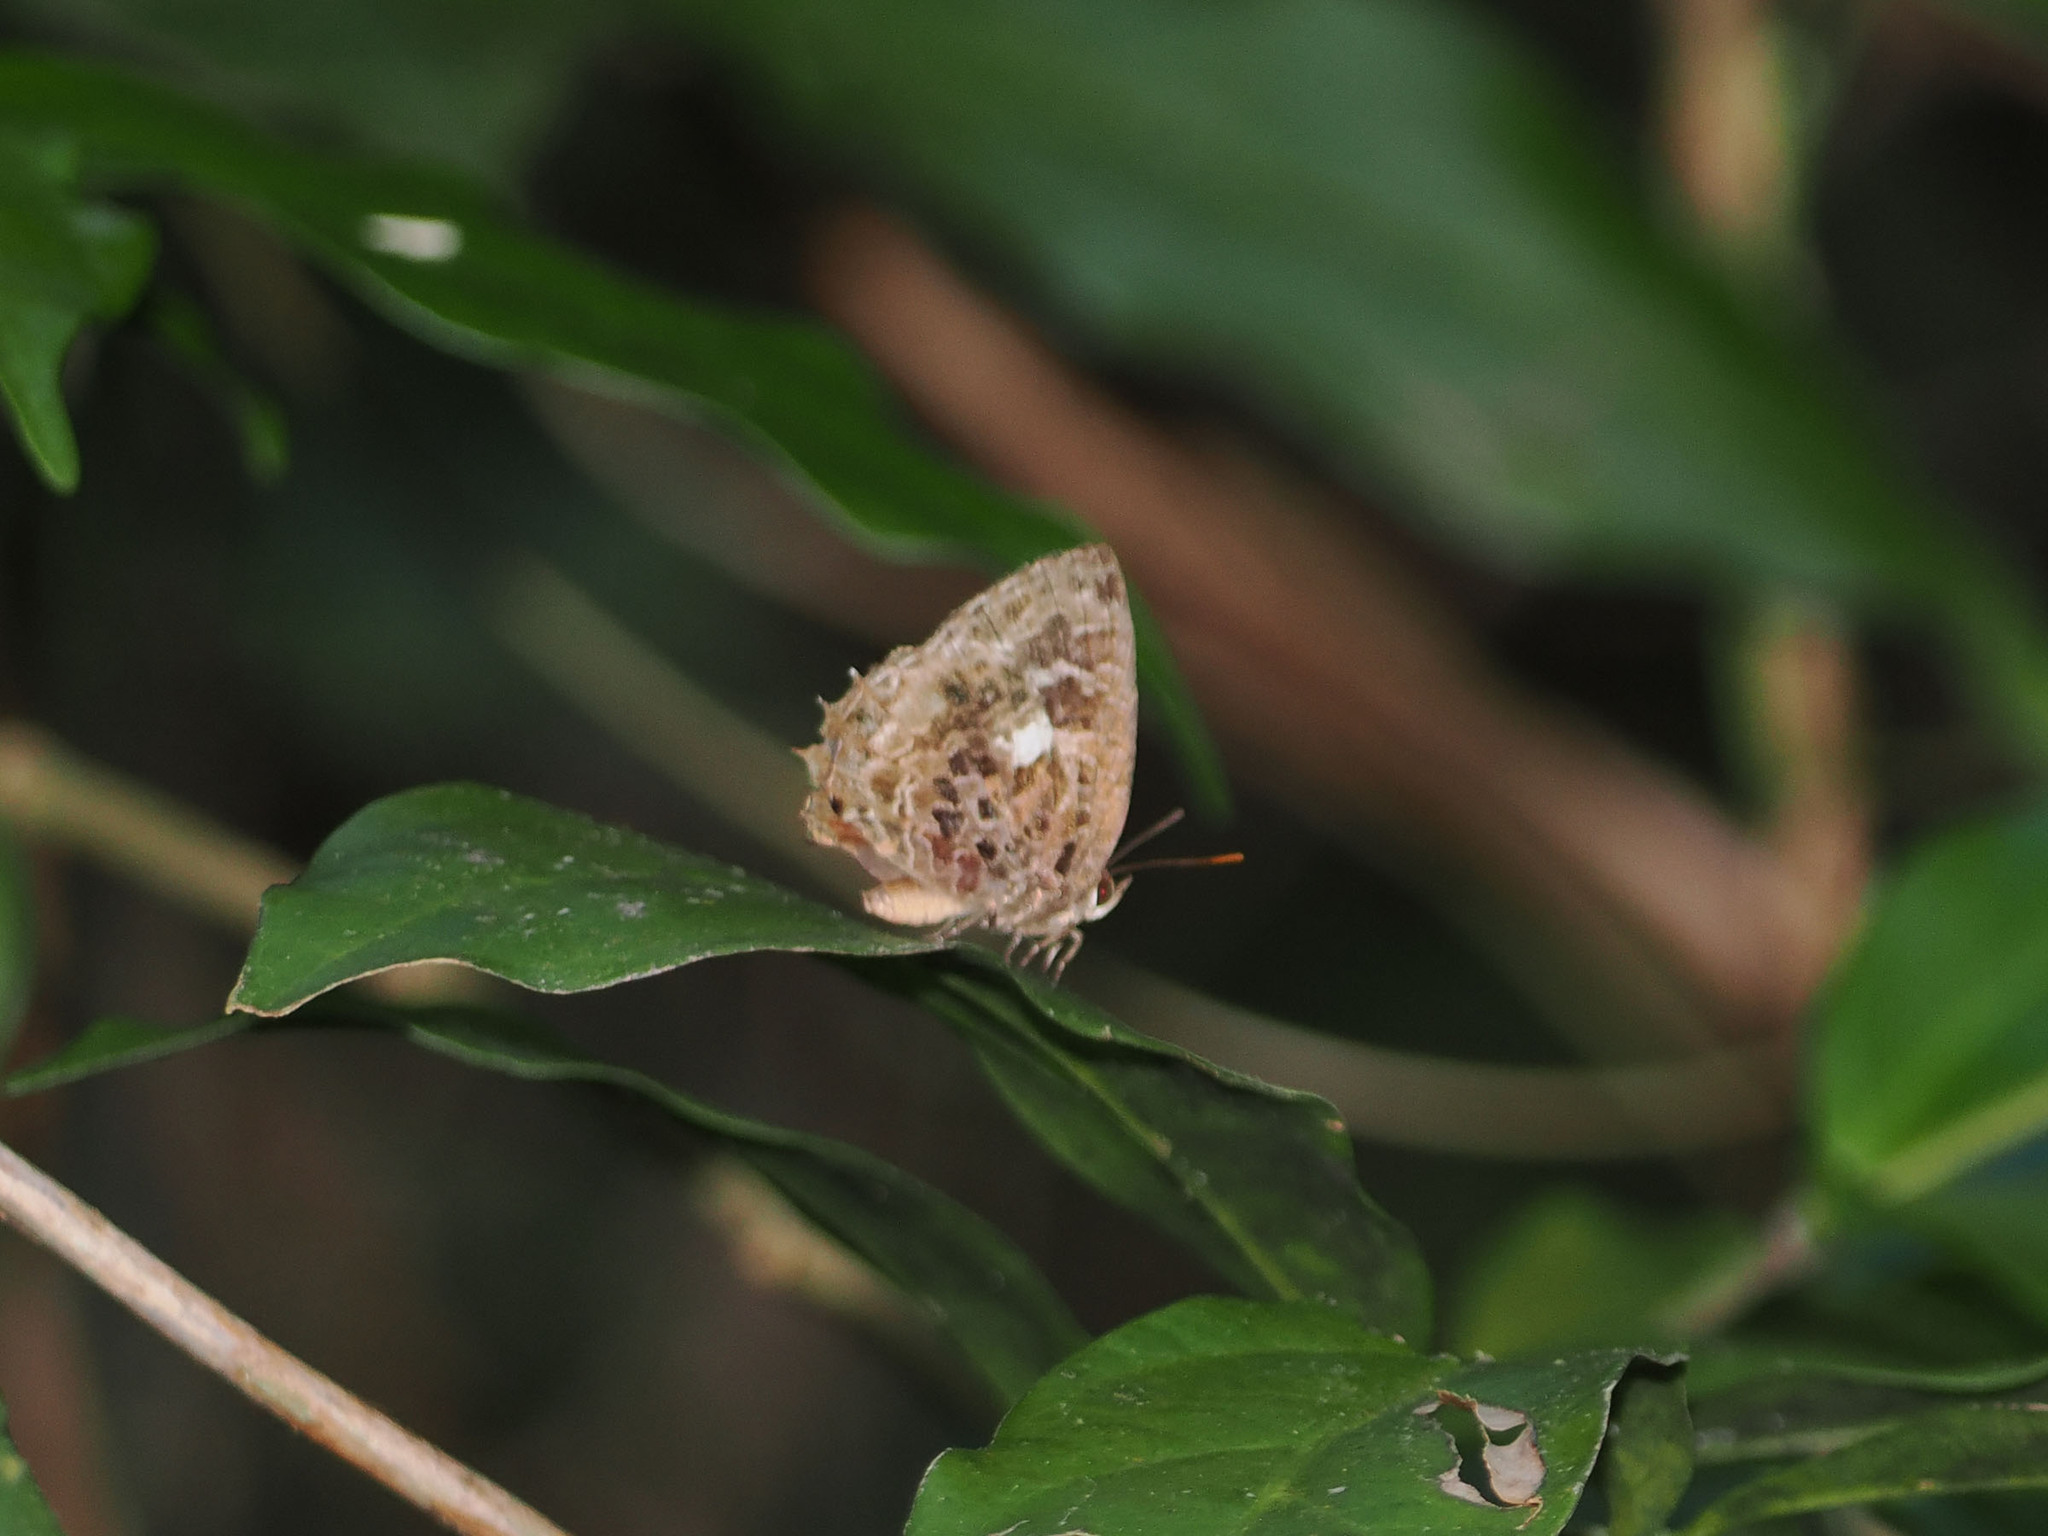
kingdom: Animalia
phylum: Arthropoda
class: Insecta
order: Lepidoptera
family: Lycaenidae
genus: Arhopala
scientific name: Arhopala abseus
